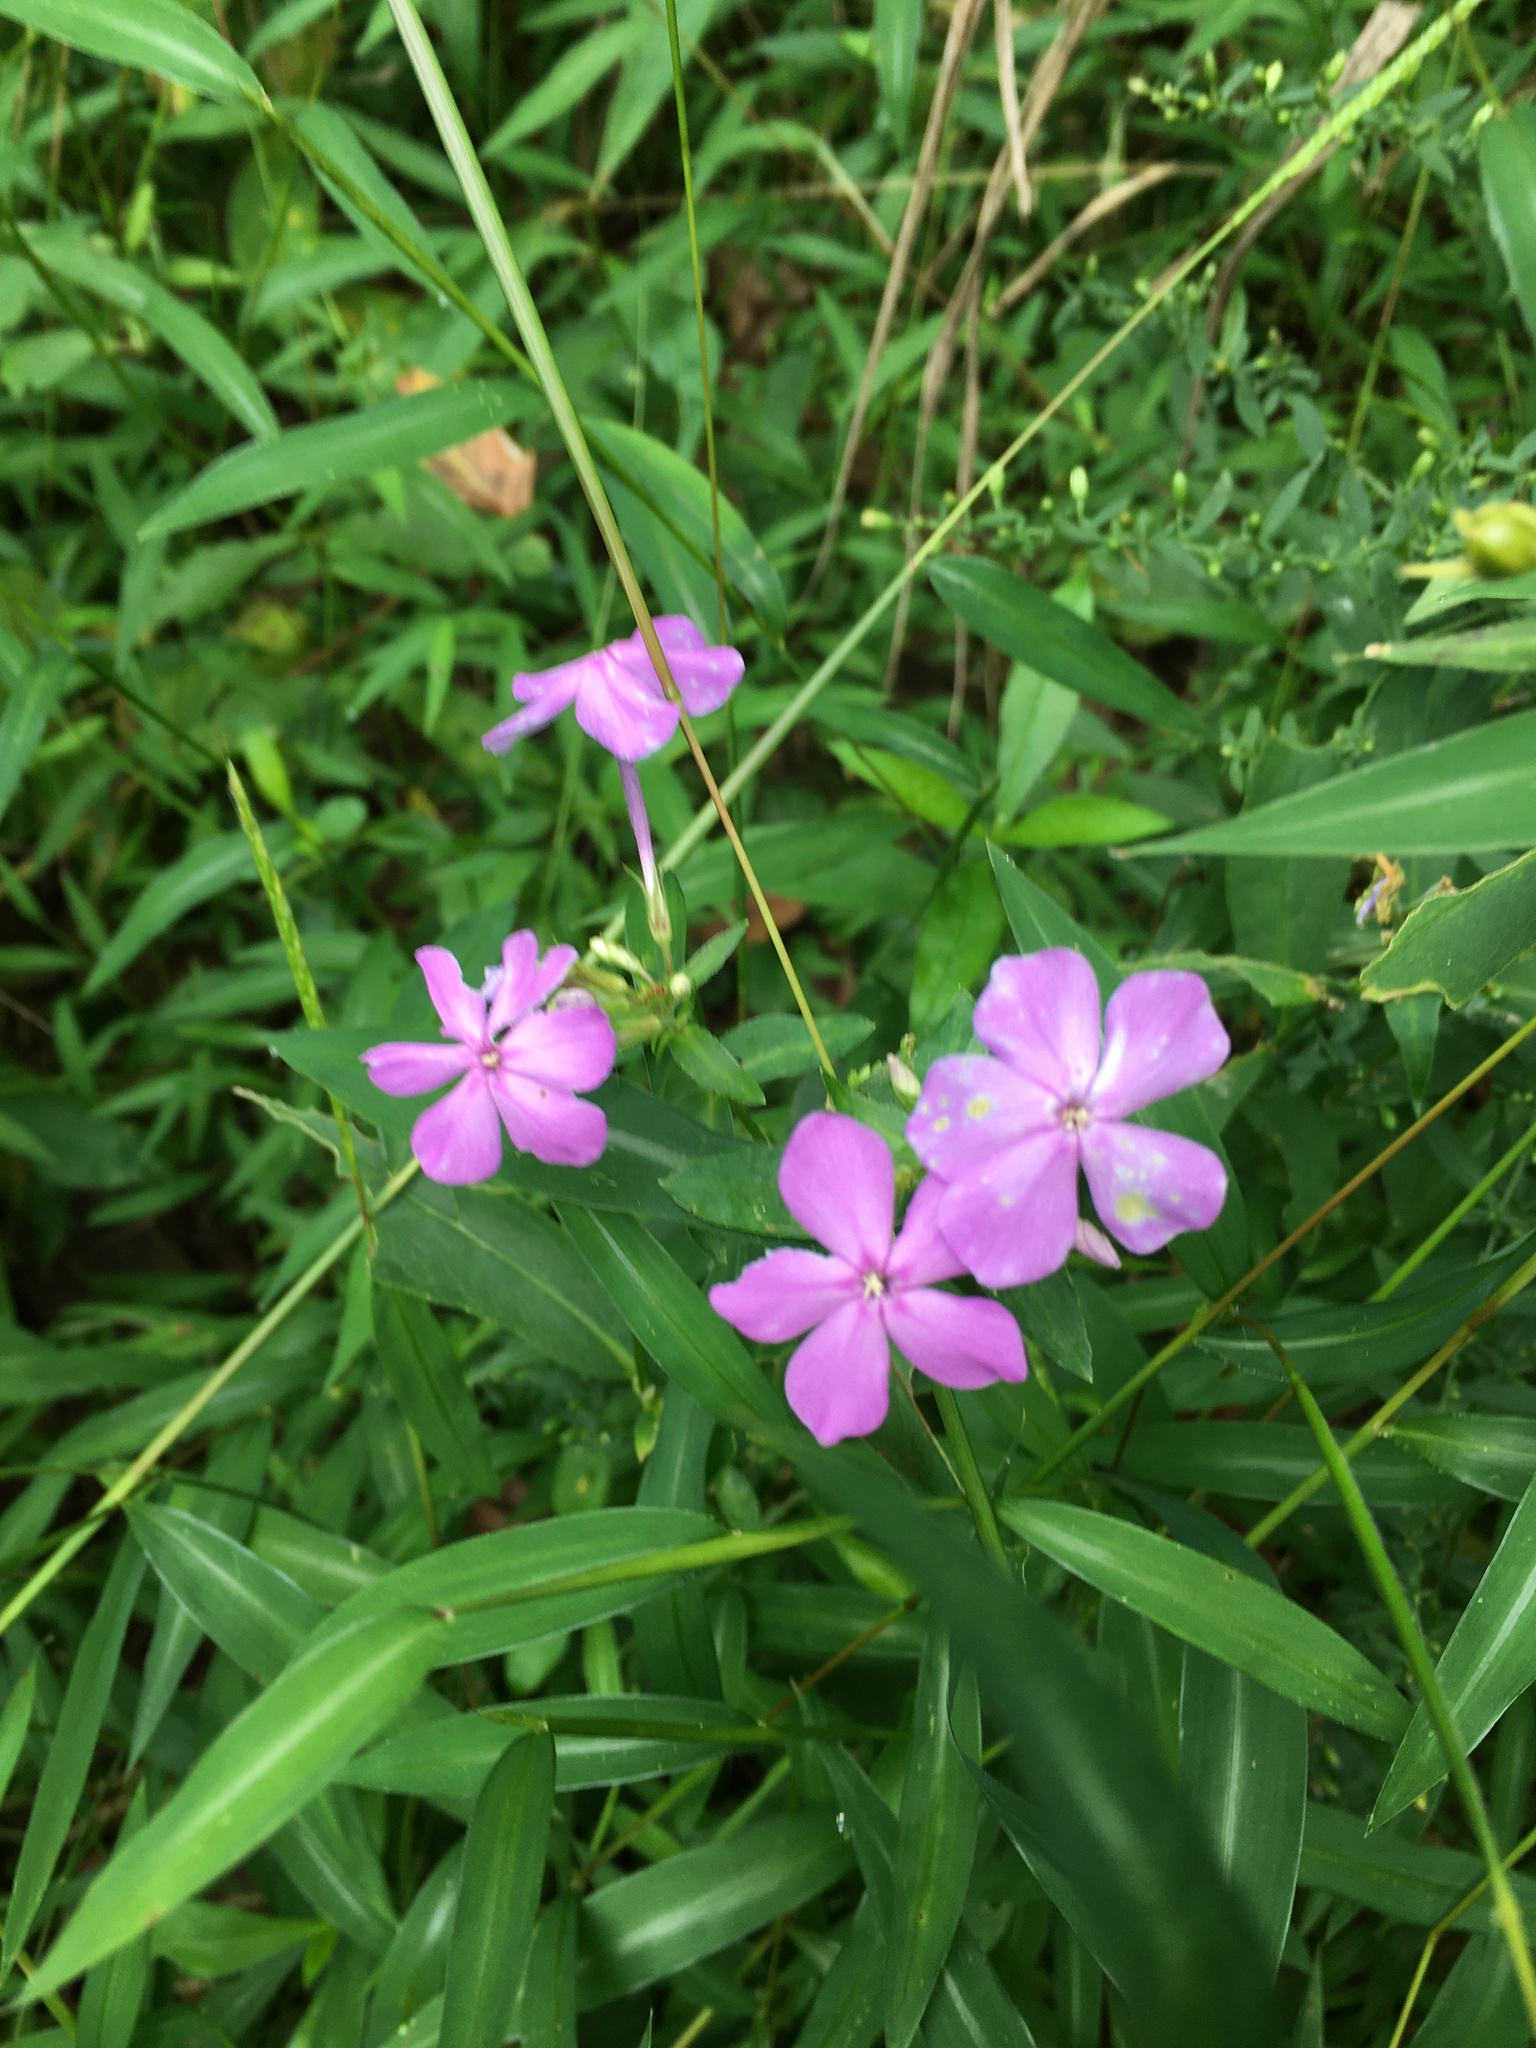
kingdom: Plantae
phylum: Tracheophyta
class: Magnoliopsida
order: Ericales
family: Polemoniaceae
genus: Phlox
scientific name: Phlox paniculata
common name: Fall phlox
